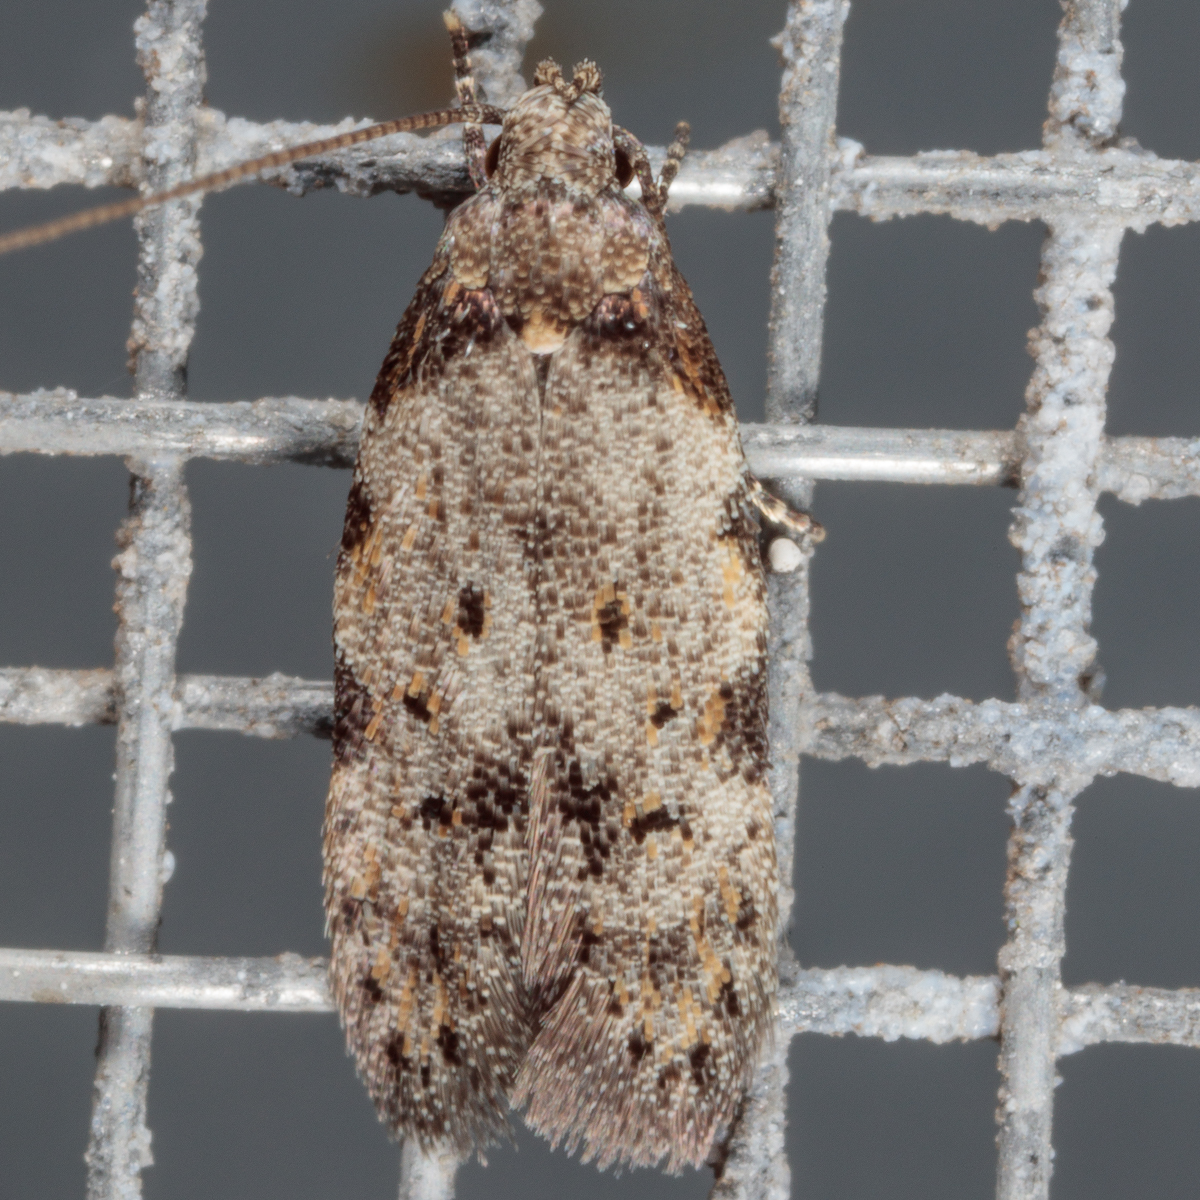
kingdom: Animalia
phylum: Arthropoda
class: Insecta
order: Lepidoptera
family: Autostichidae
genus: Taygete
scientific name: Taygete attributella
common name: Triangle-marked twirler moth
